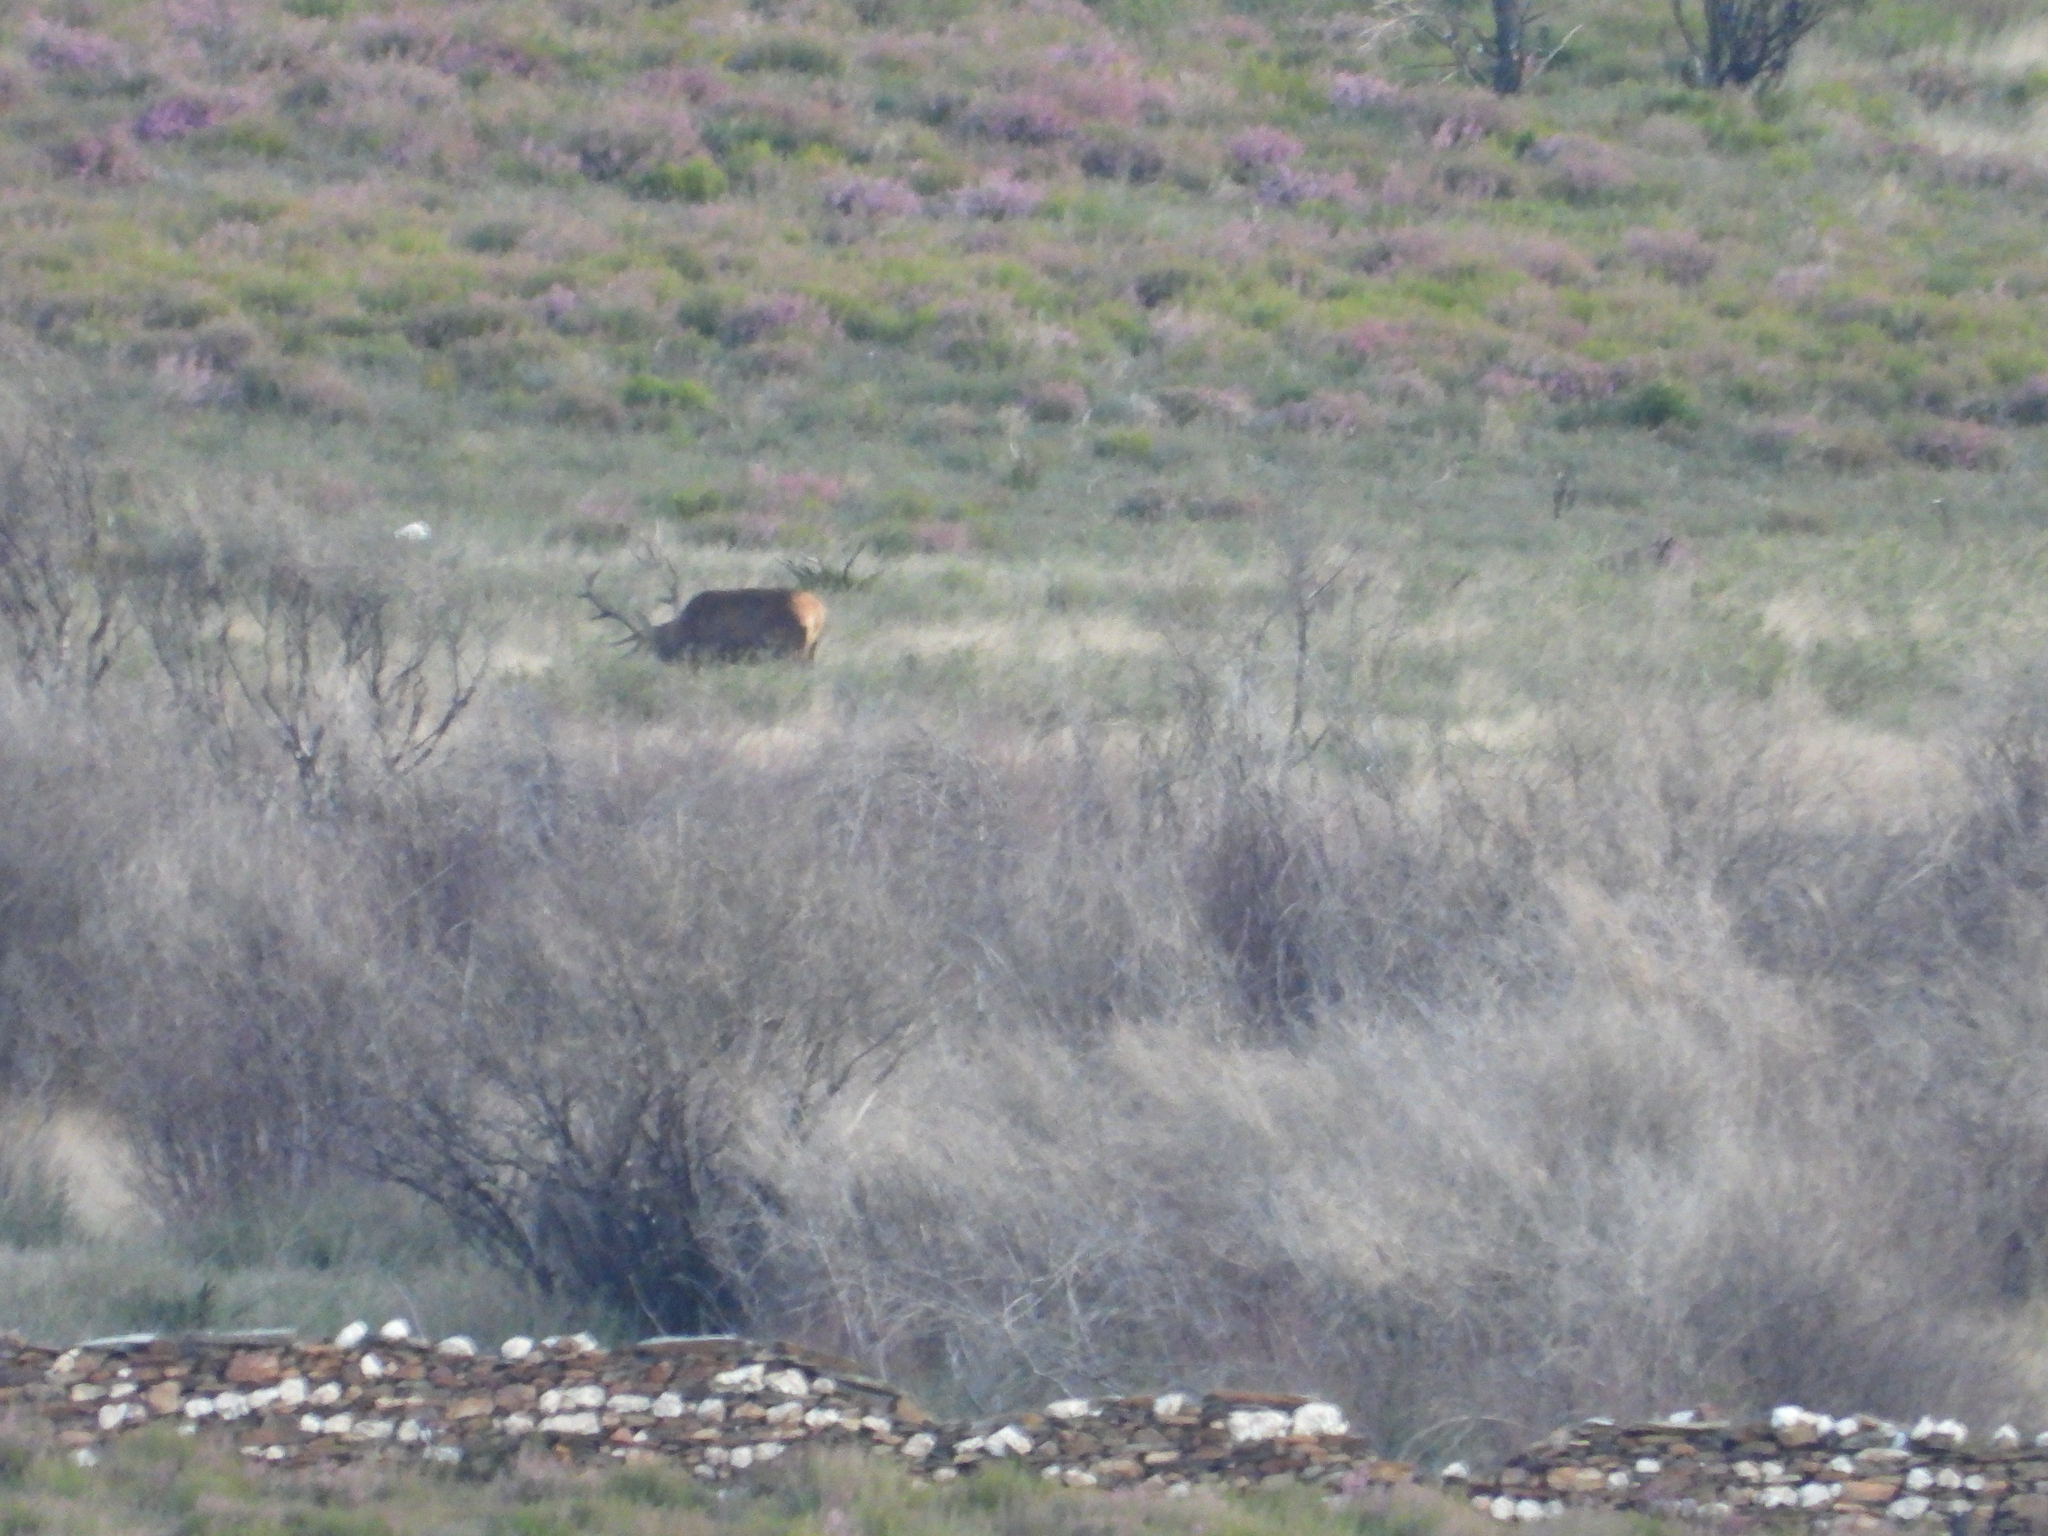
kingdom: Animalia
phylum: Chordata
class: Mammalia
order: Artiodactyla
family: Cervidae
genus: Cervus
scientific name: Cervus elaphus
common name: Red deer
